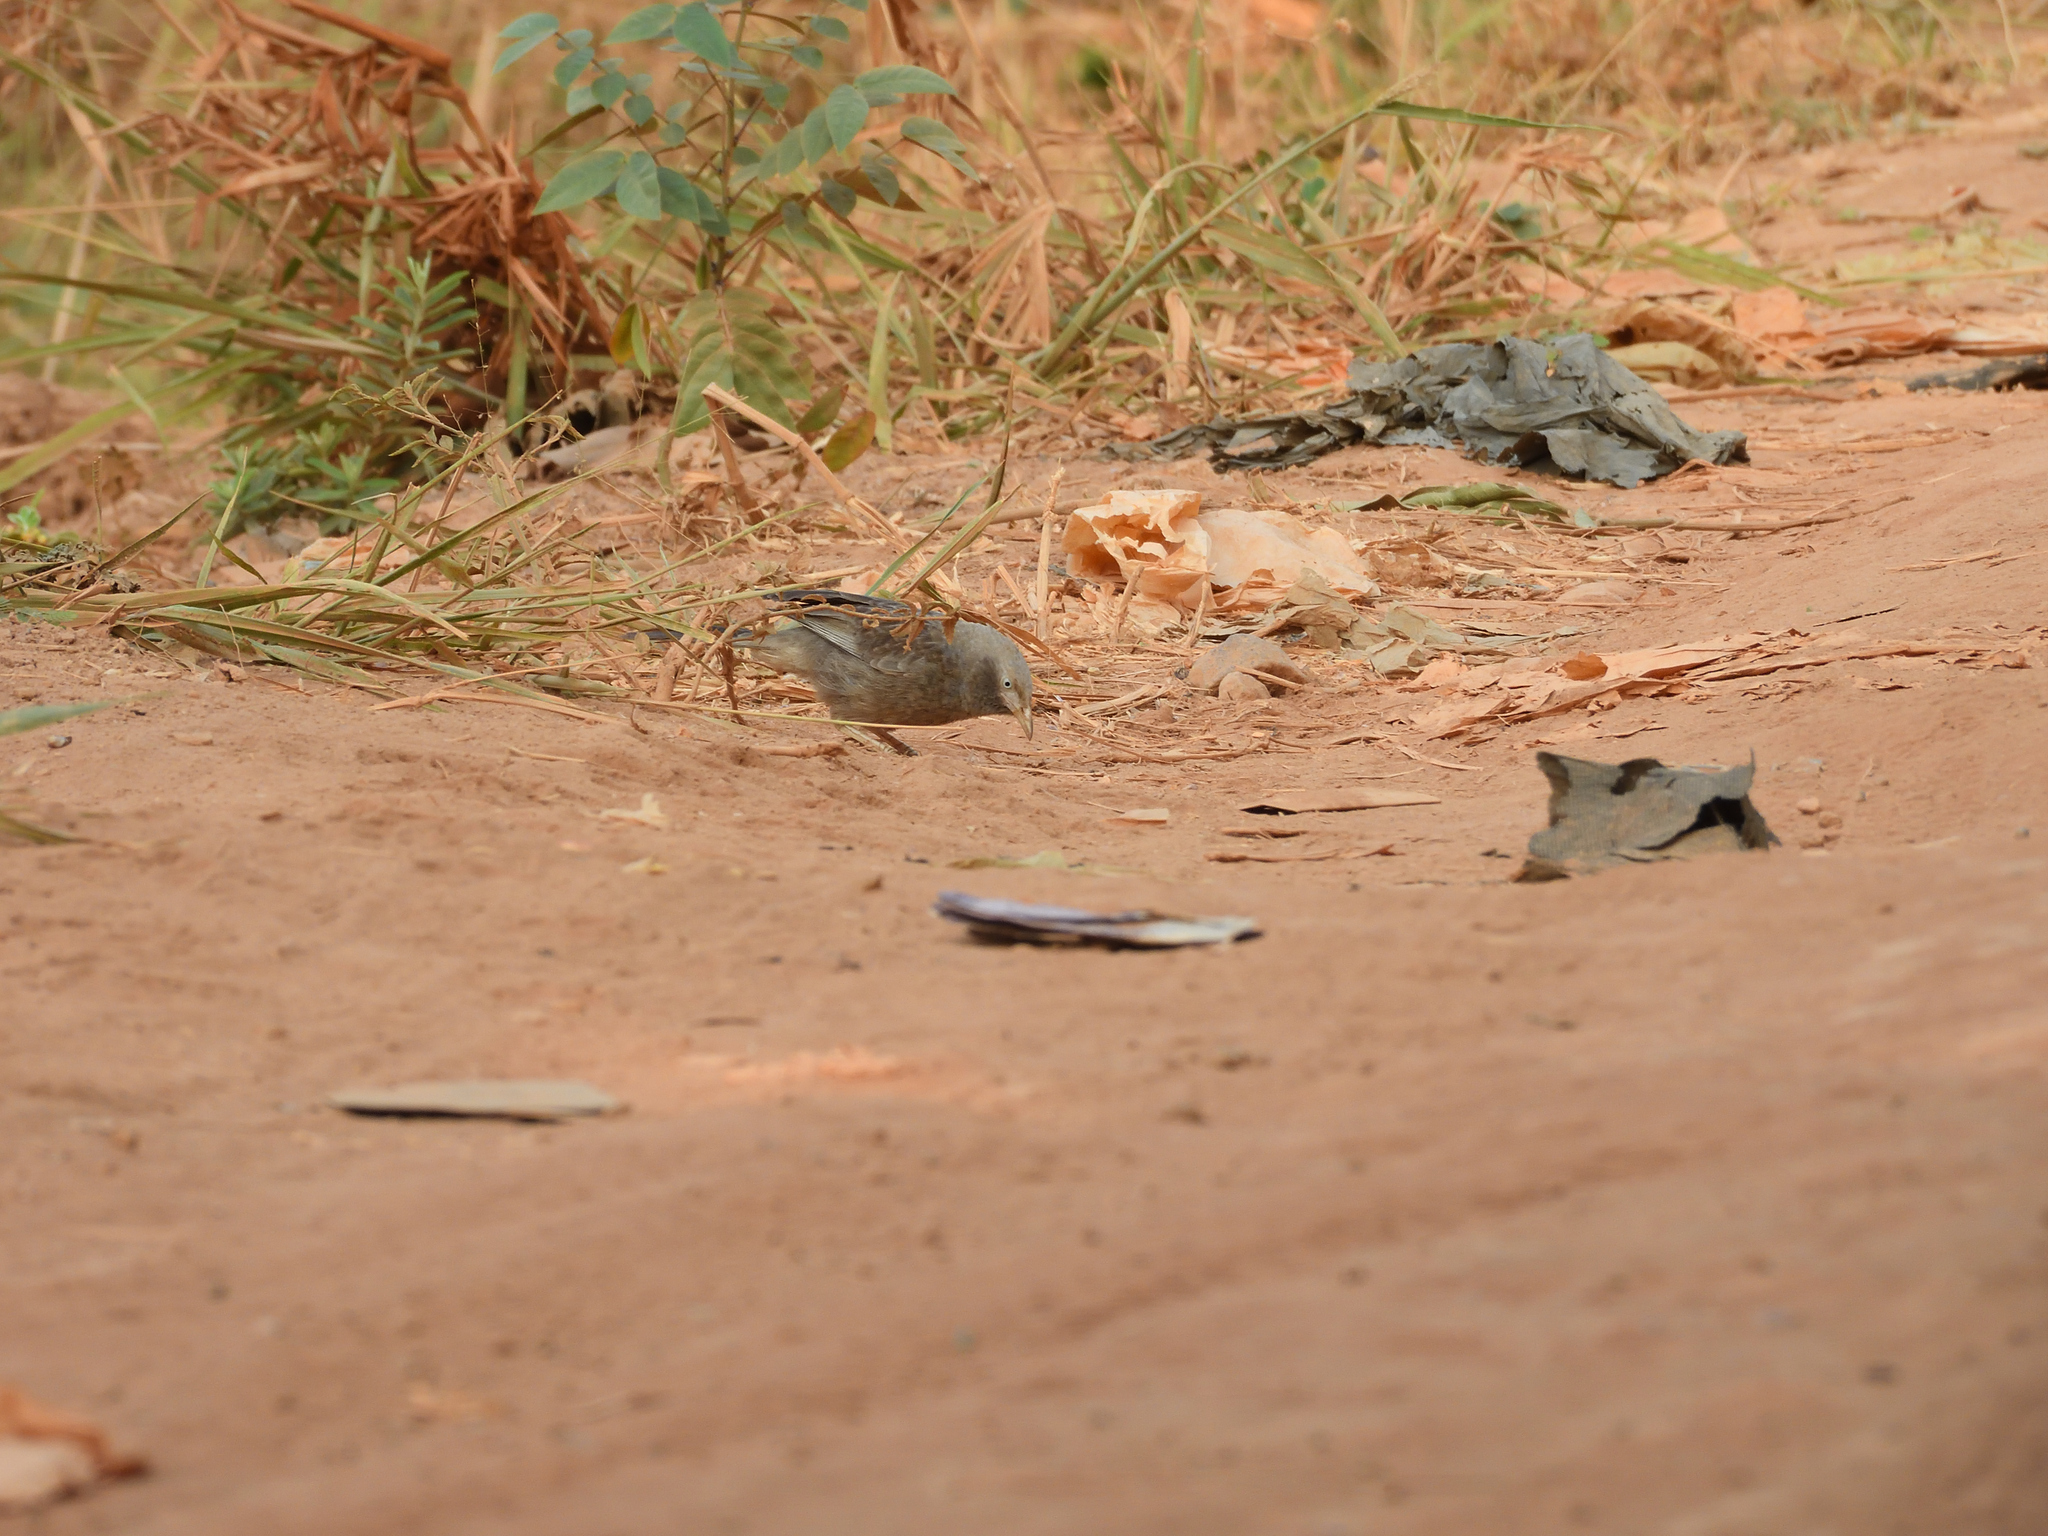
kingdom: Animalia
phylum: Chordata
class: Aves
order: Passeriformes
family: Leiothrichidae
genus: Turdoides
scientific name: Turdoides affinis
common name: Yellow-billed babbler
